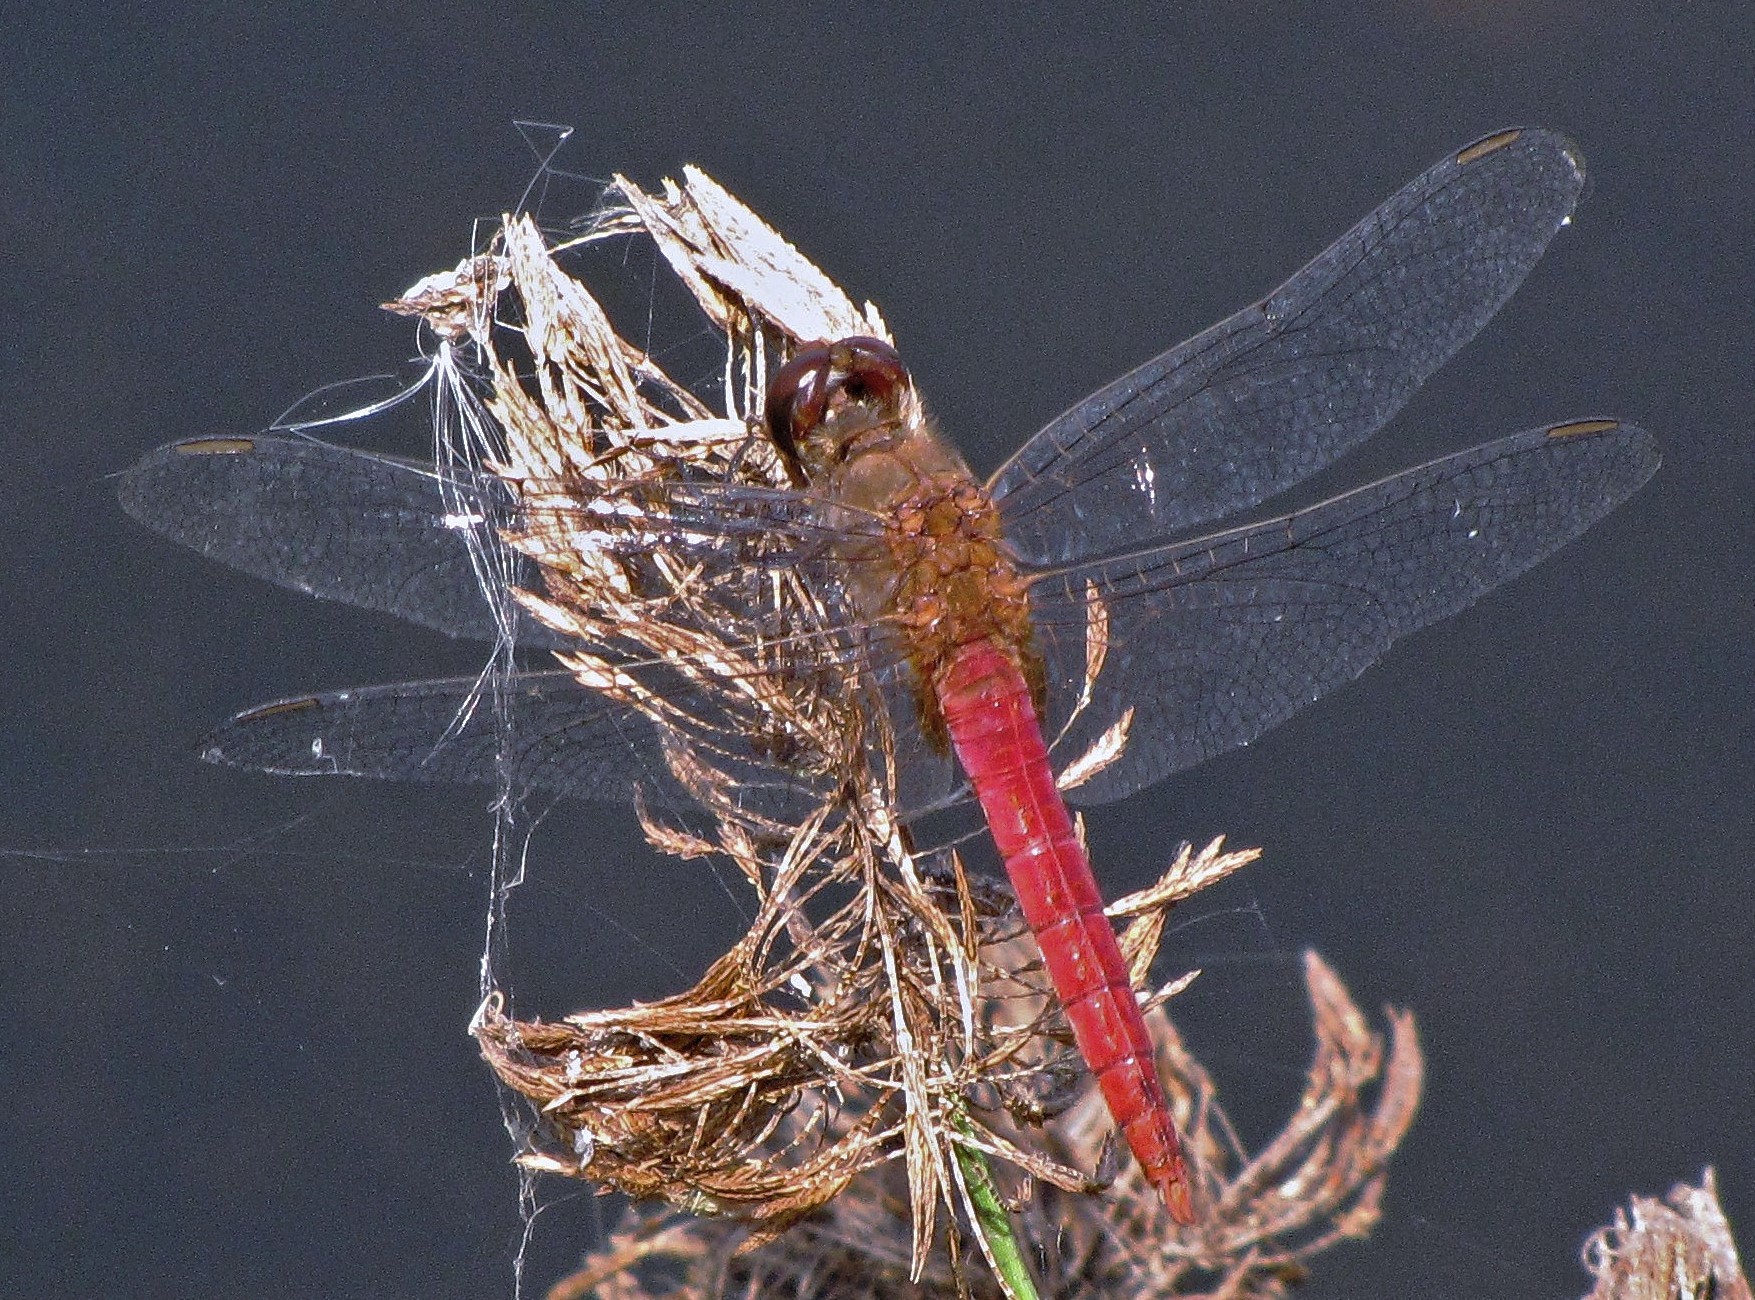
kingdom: Animalia
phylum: Arthropoda
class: Insecta
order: Odonata
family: Libellulidae
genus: Brachymesia
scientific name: Brachymesia furcata
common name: Red-taled pennant
